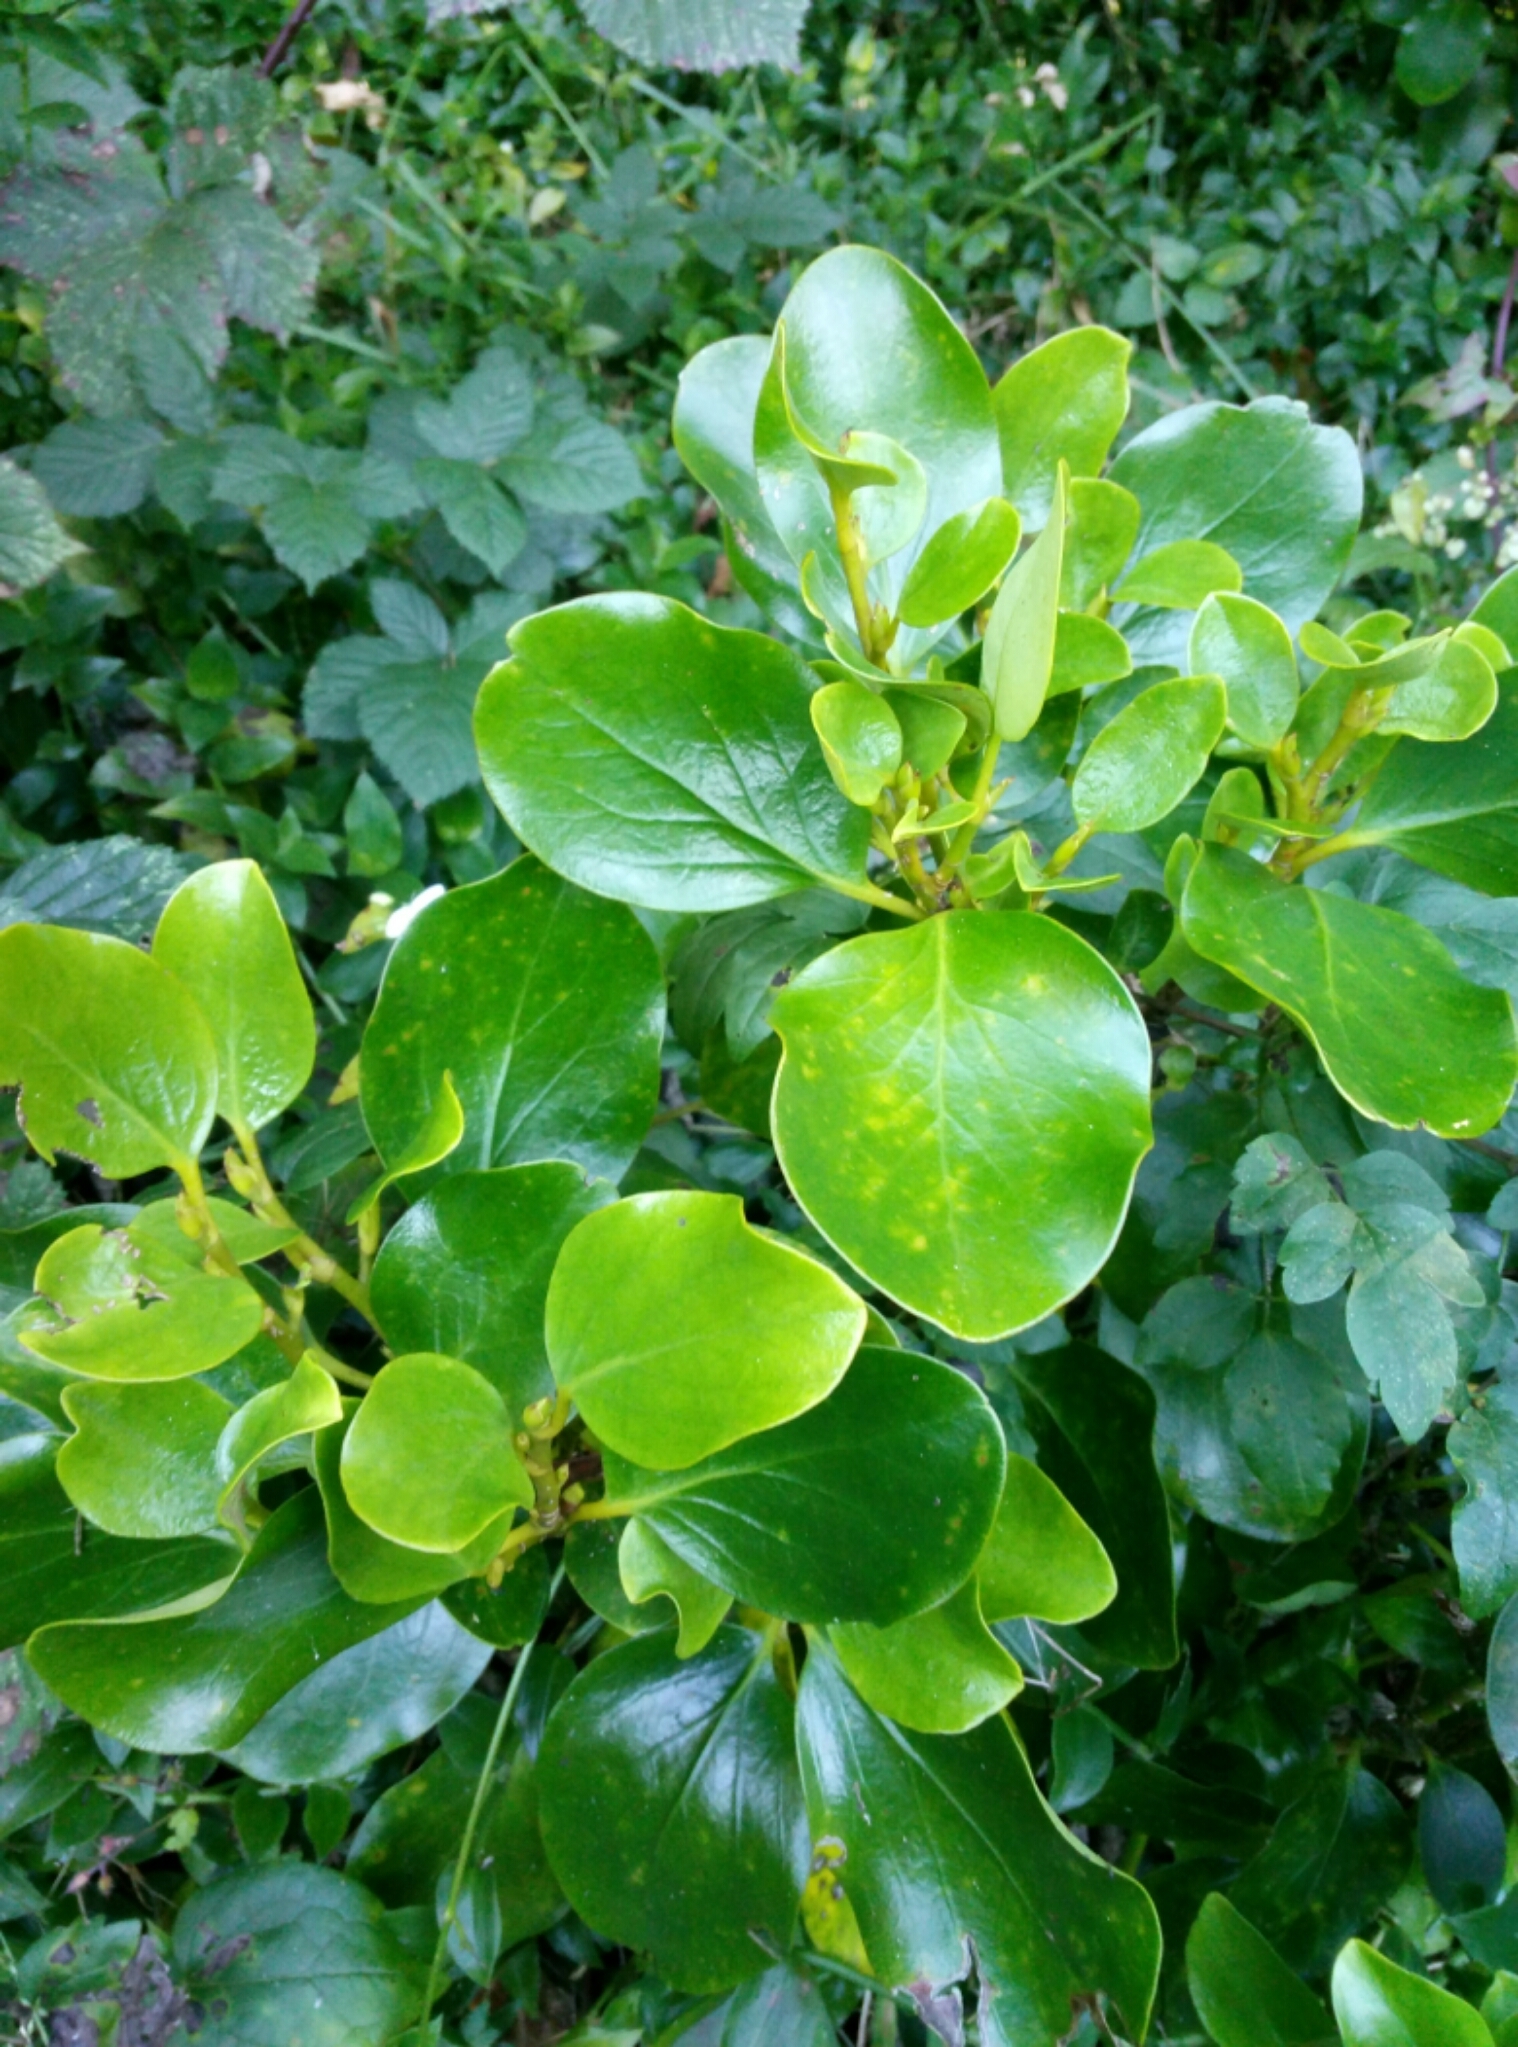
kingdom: Plantae
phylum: Tracheophyta
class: Magnoliopsida
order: Apiales
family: Griseliniaceae
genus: Griselinia
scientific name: Griselinia littoralis
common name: New zealand broadleaf
